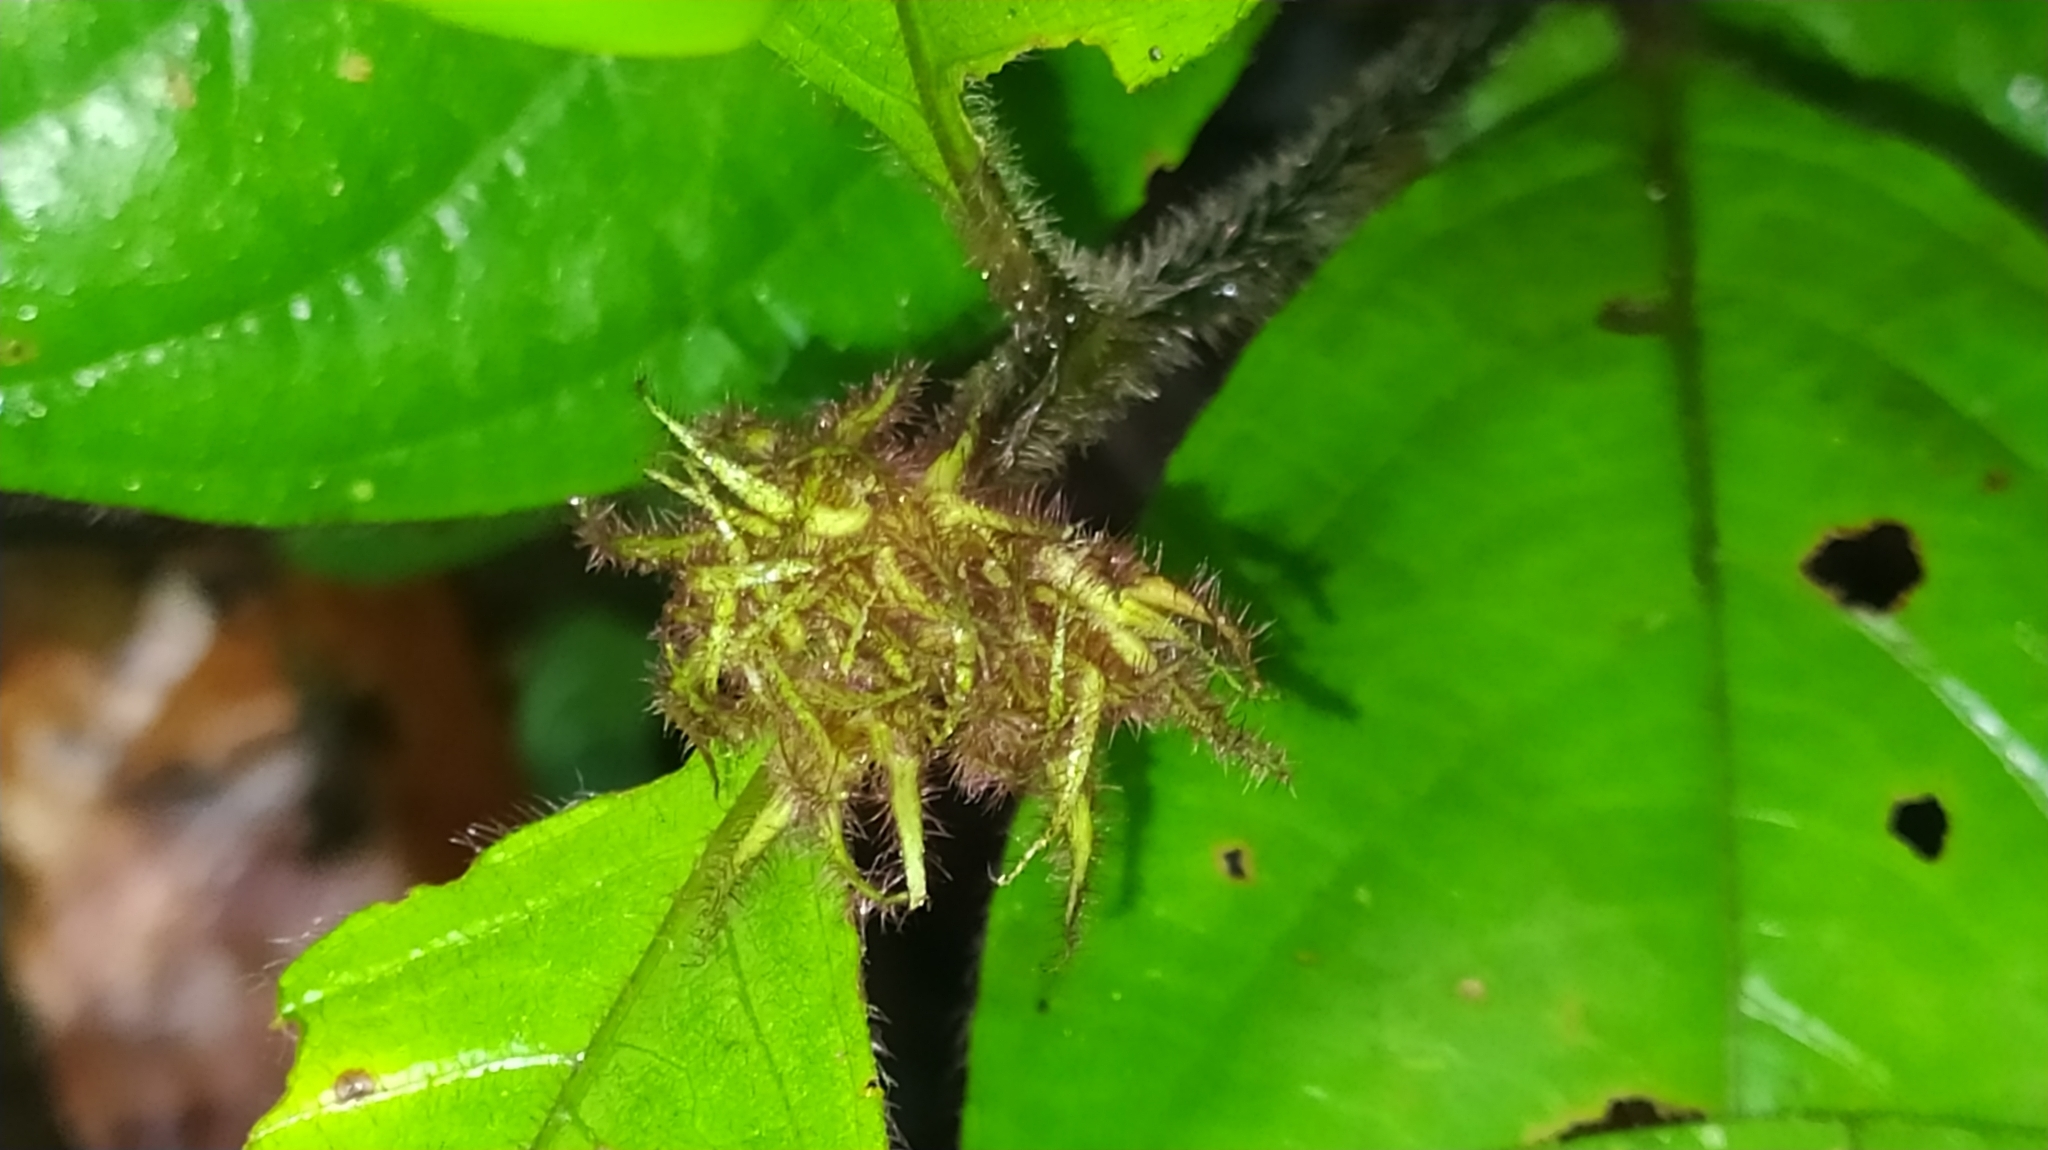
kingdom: Plantae
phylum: Tracheophyta
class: Magnoliopsida
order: Gentianales
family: Rubiaceae
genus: Palicourea
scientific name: Palicourea glabra
